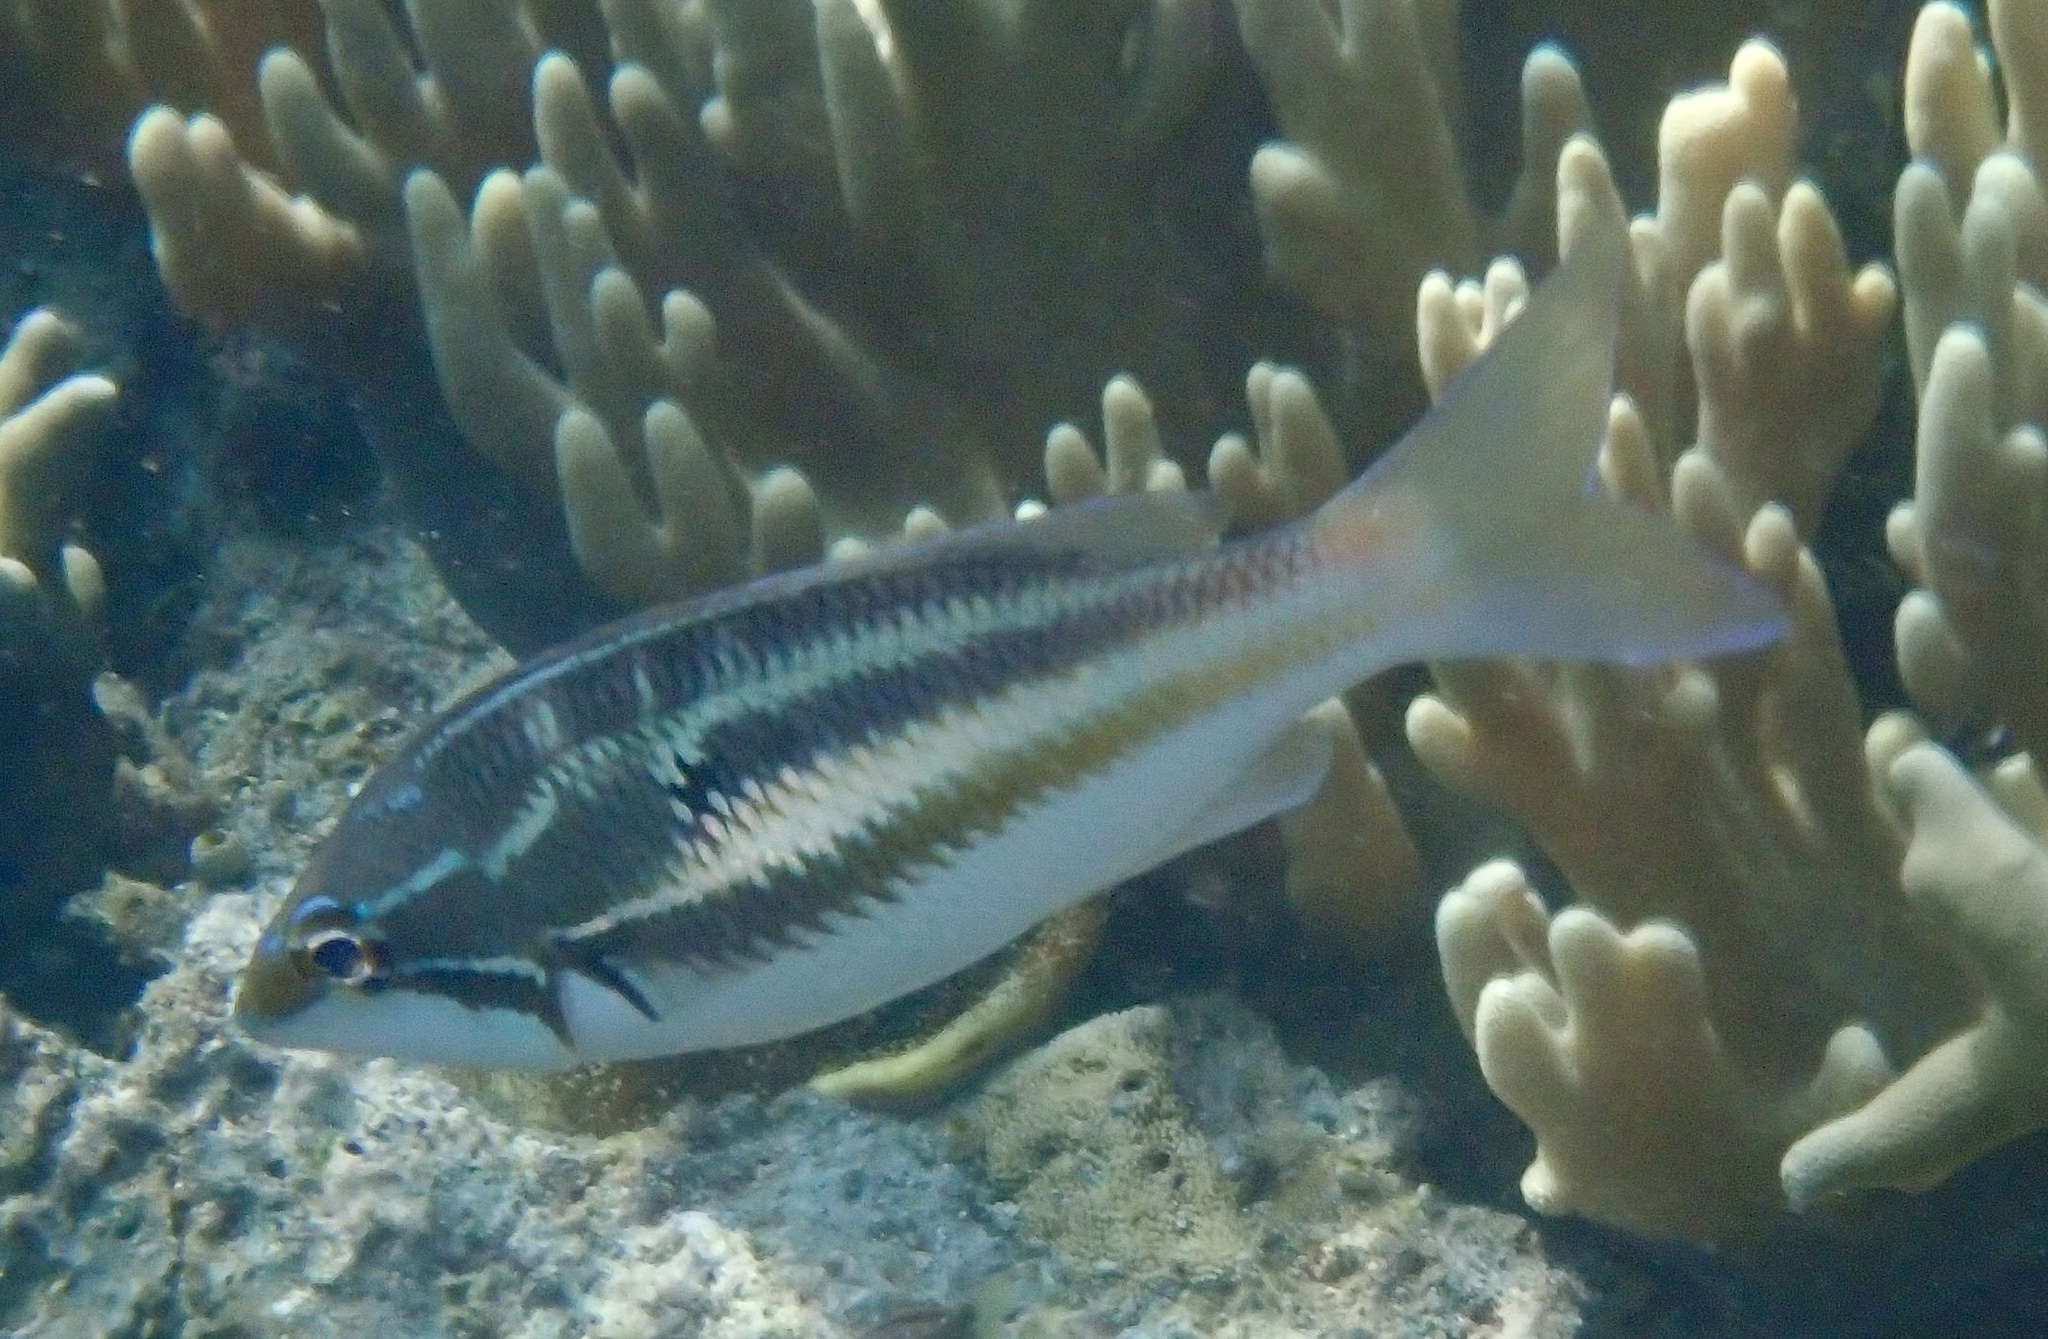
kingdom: Animalia
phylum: Chordata
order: Perciformes
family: Nemipteridae
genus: Pentapodus
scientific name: Pentapodus trivittatus
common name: Three-striped whiptail
